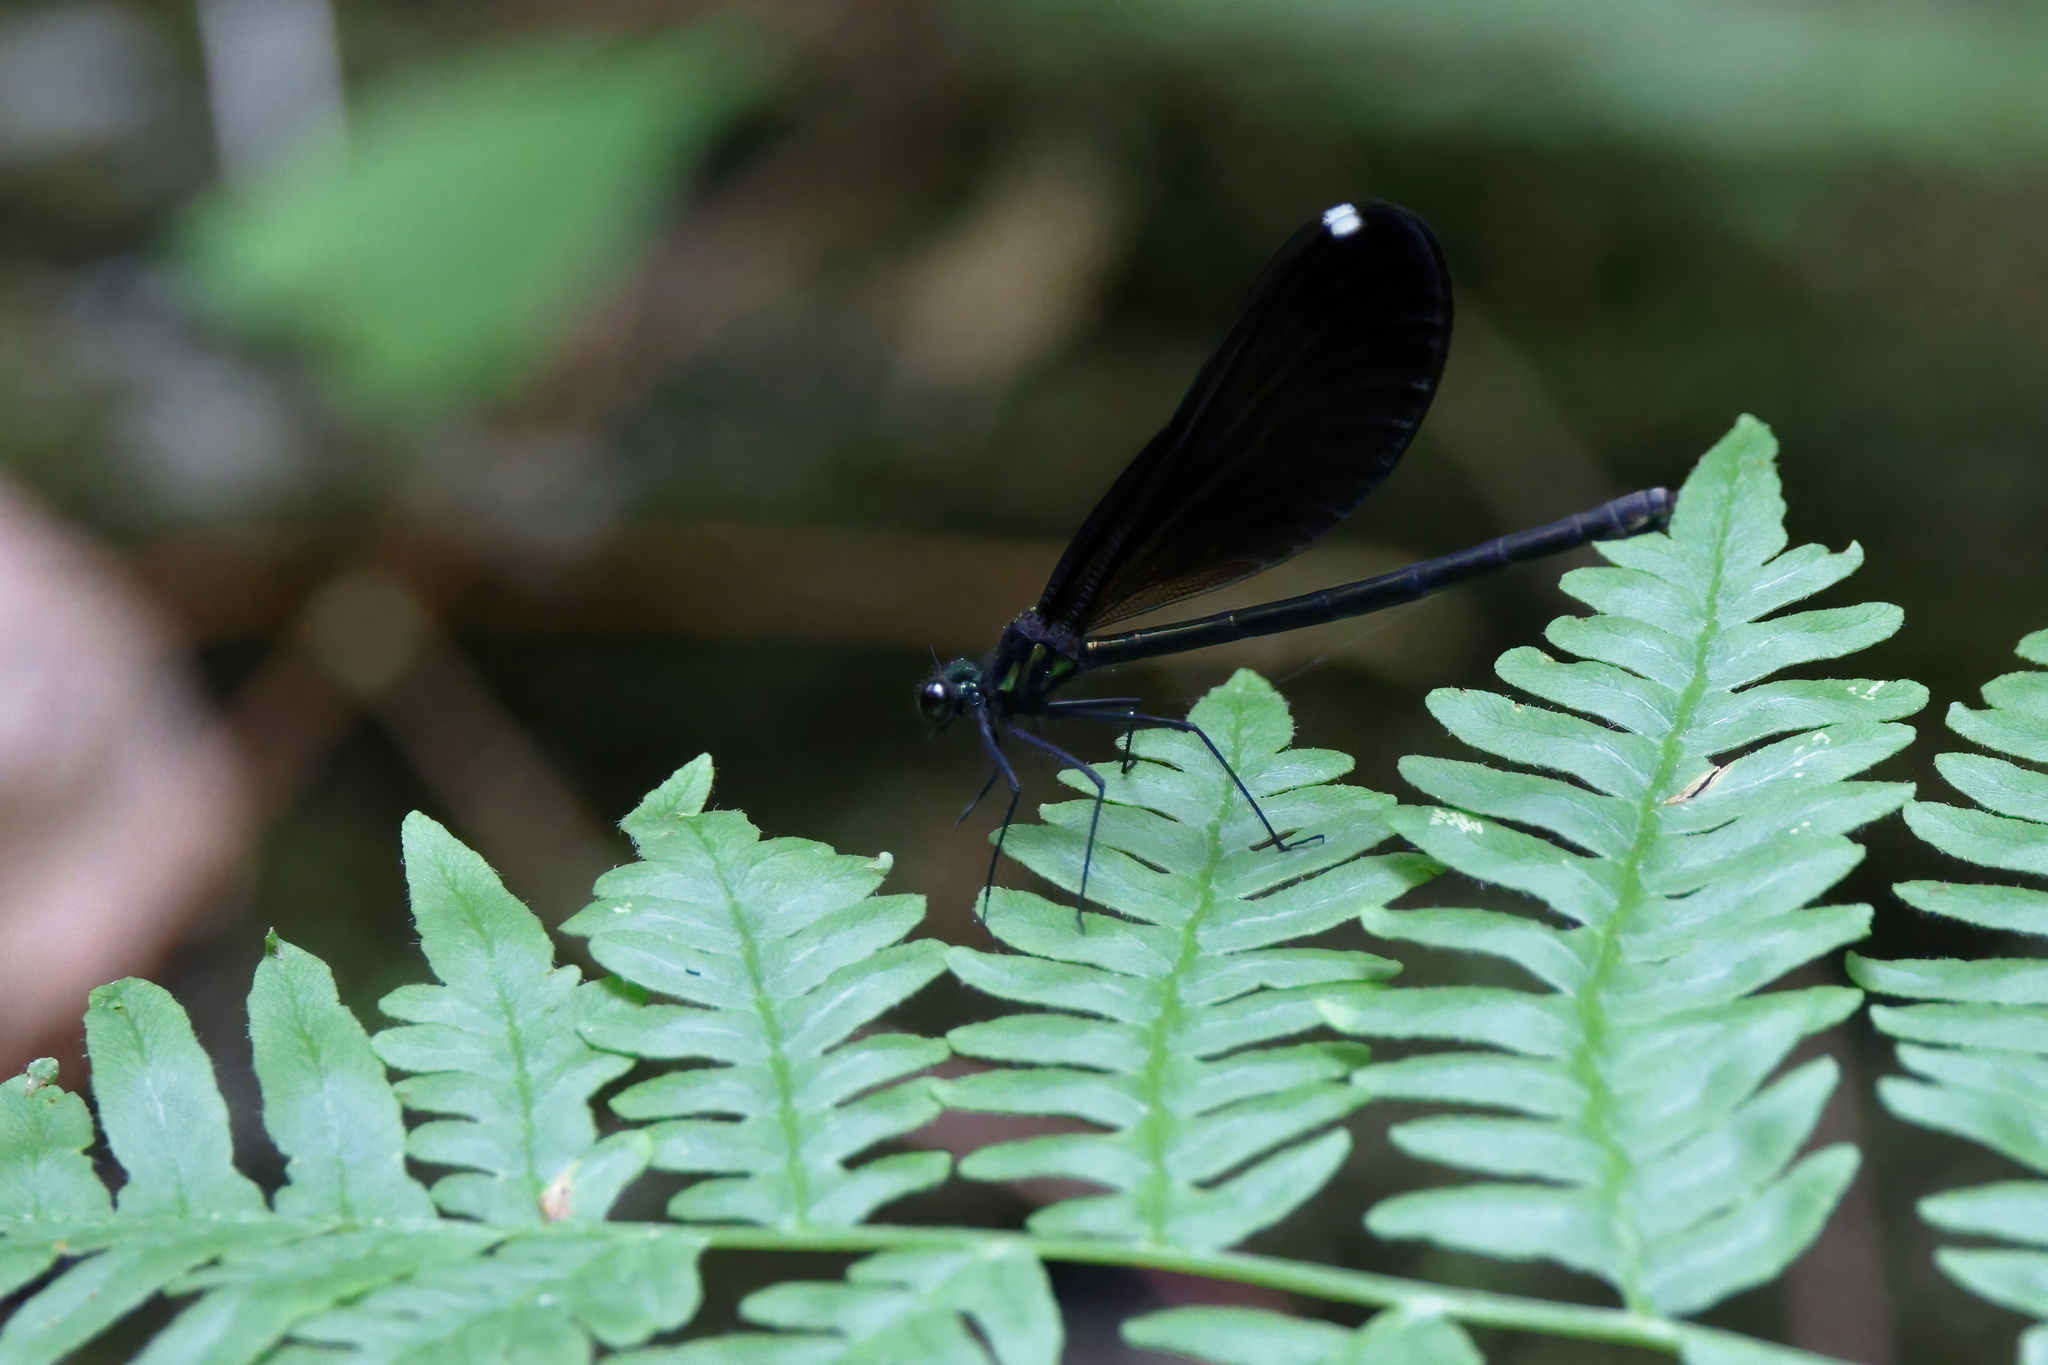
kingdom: Animalia
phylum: Arthropoda
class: Insecta
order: Odonata
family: Calopterygidae
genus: Calopteryx
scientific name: Calopteryx maculata
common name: Ebony jewelwing
